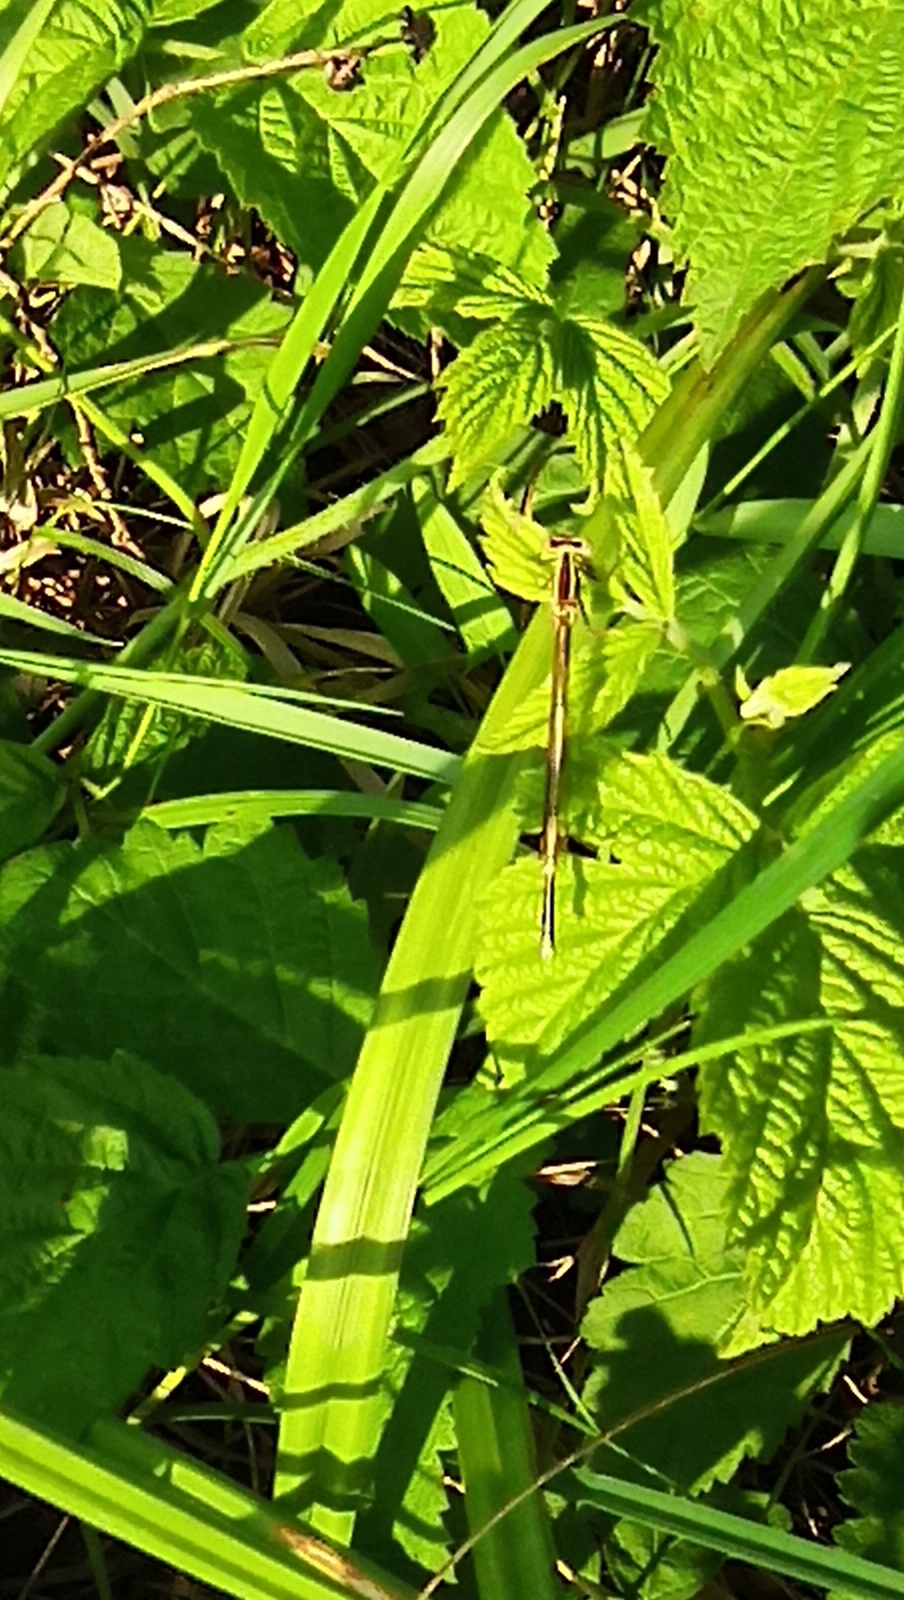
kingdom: Animalia
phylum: Arthropoda
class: Insecta
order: Odonata
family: Platycnemididae
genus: Platycnemis
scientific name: Platycnemis pennipes
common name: White-legged damselfly
